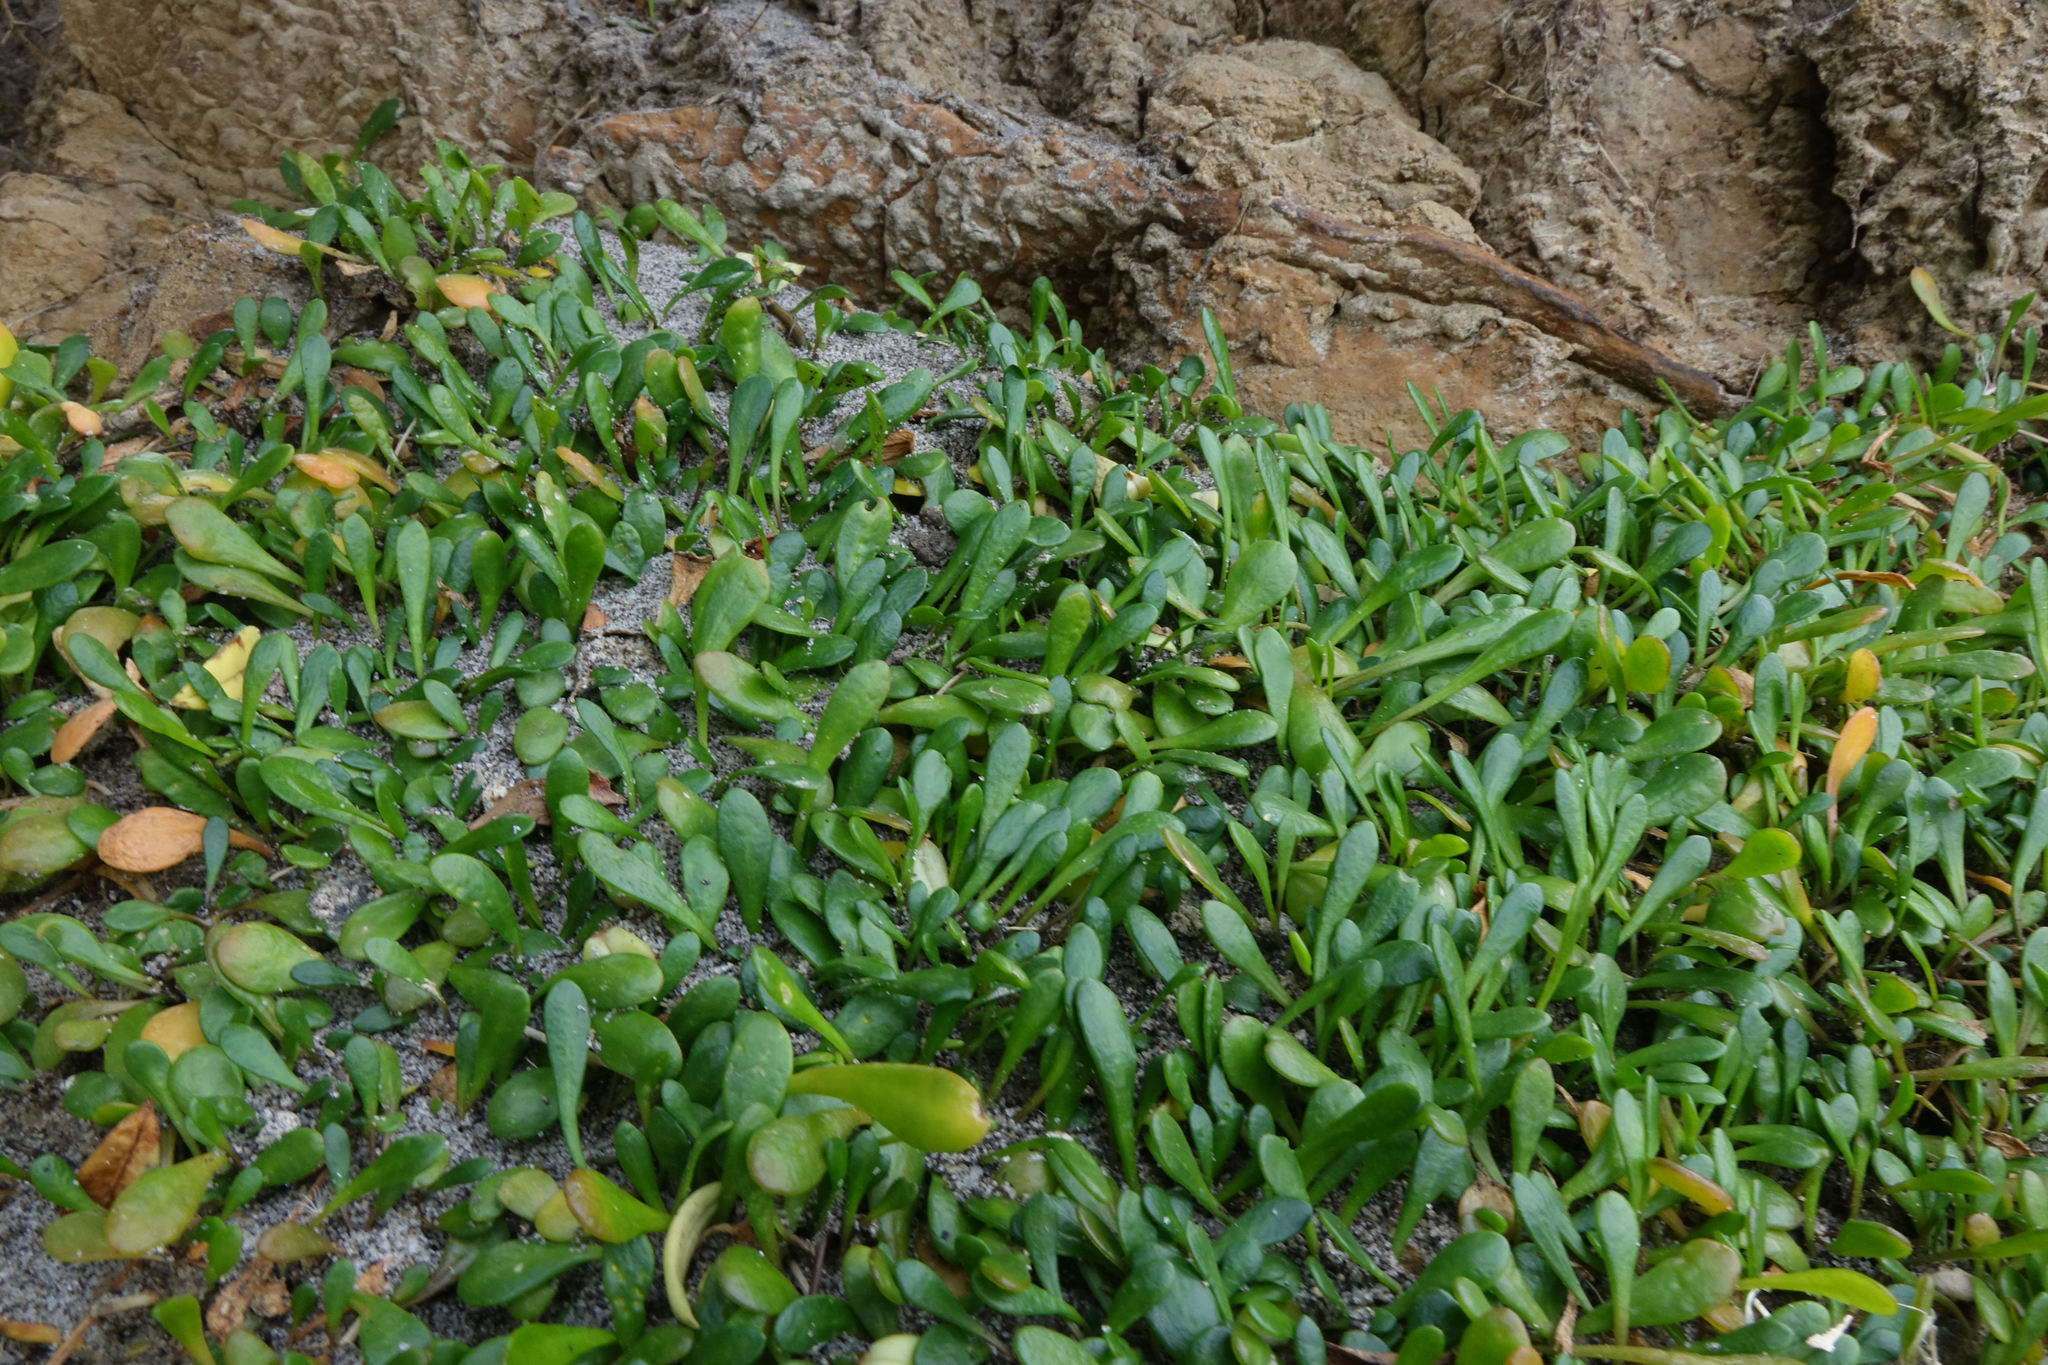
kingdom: Plantae
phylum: Tracheophyta
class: Magnoliopsida
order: Asterales
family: Goodeniaceae
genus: Goodenia
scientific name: Goodenia radicans
